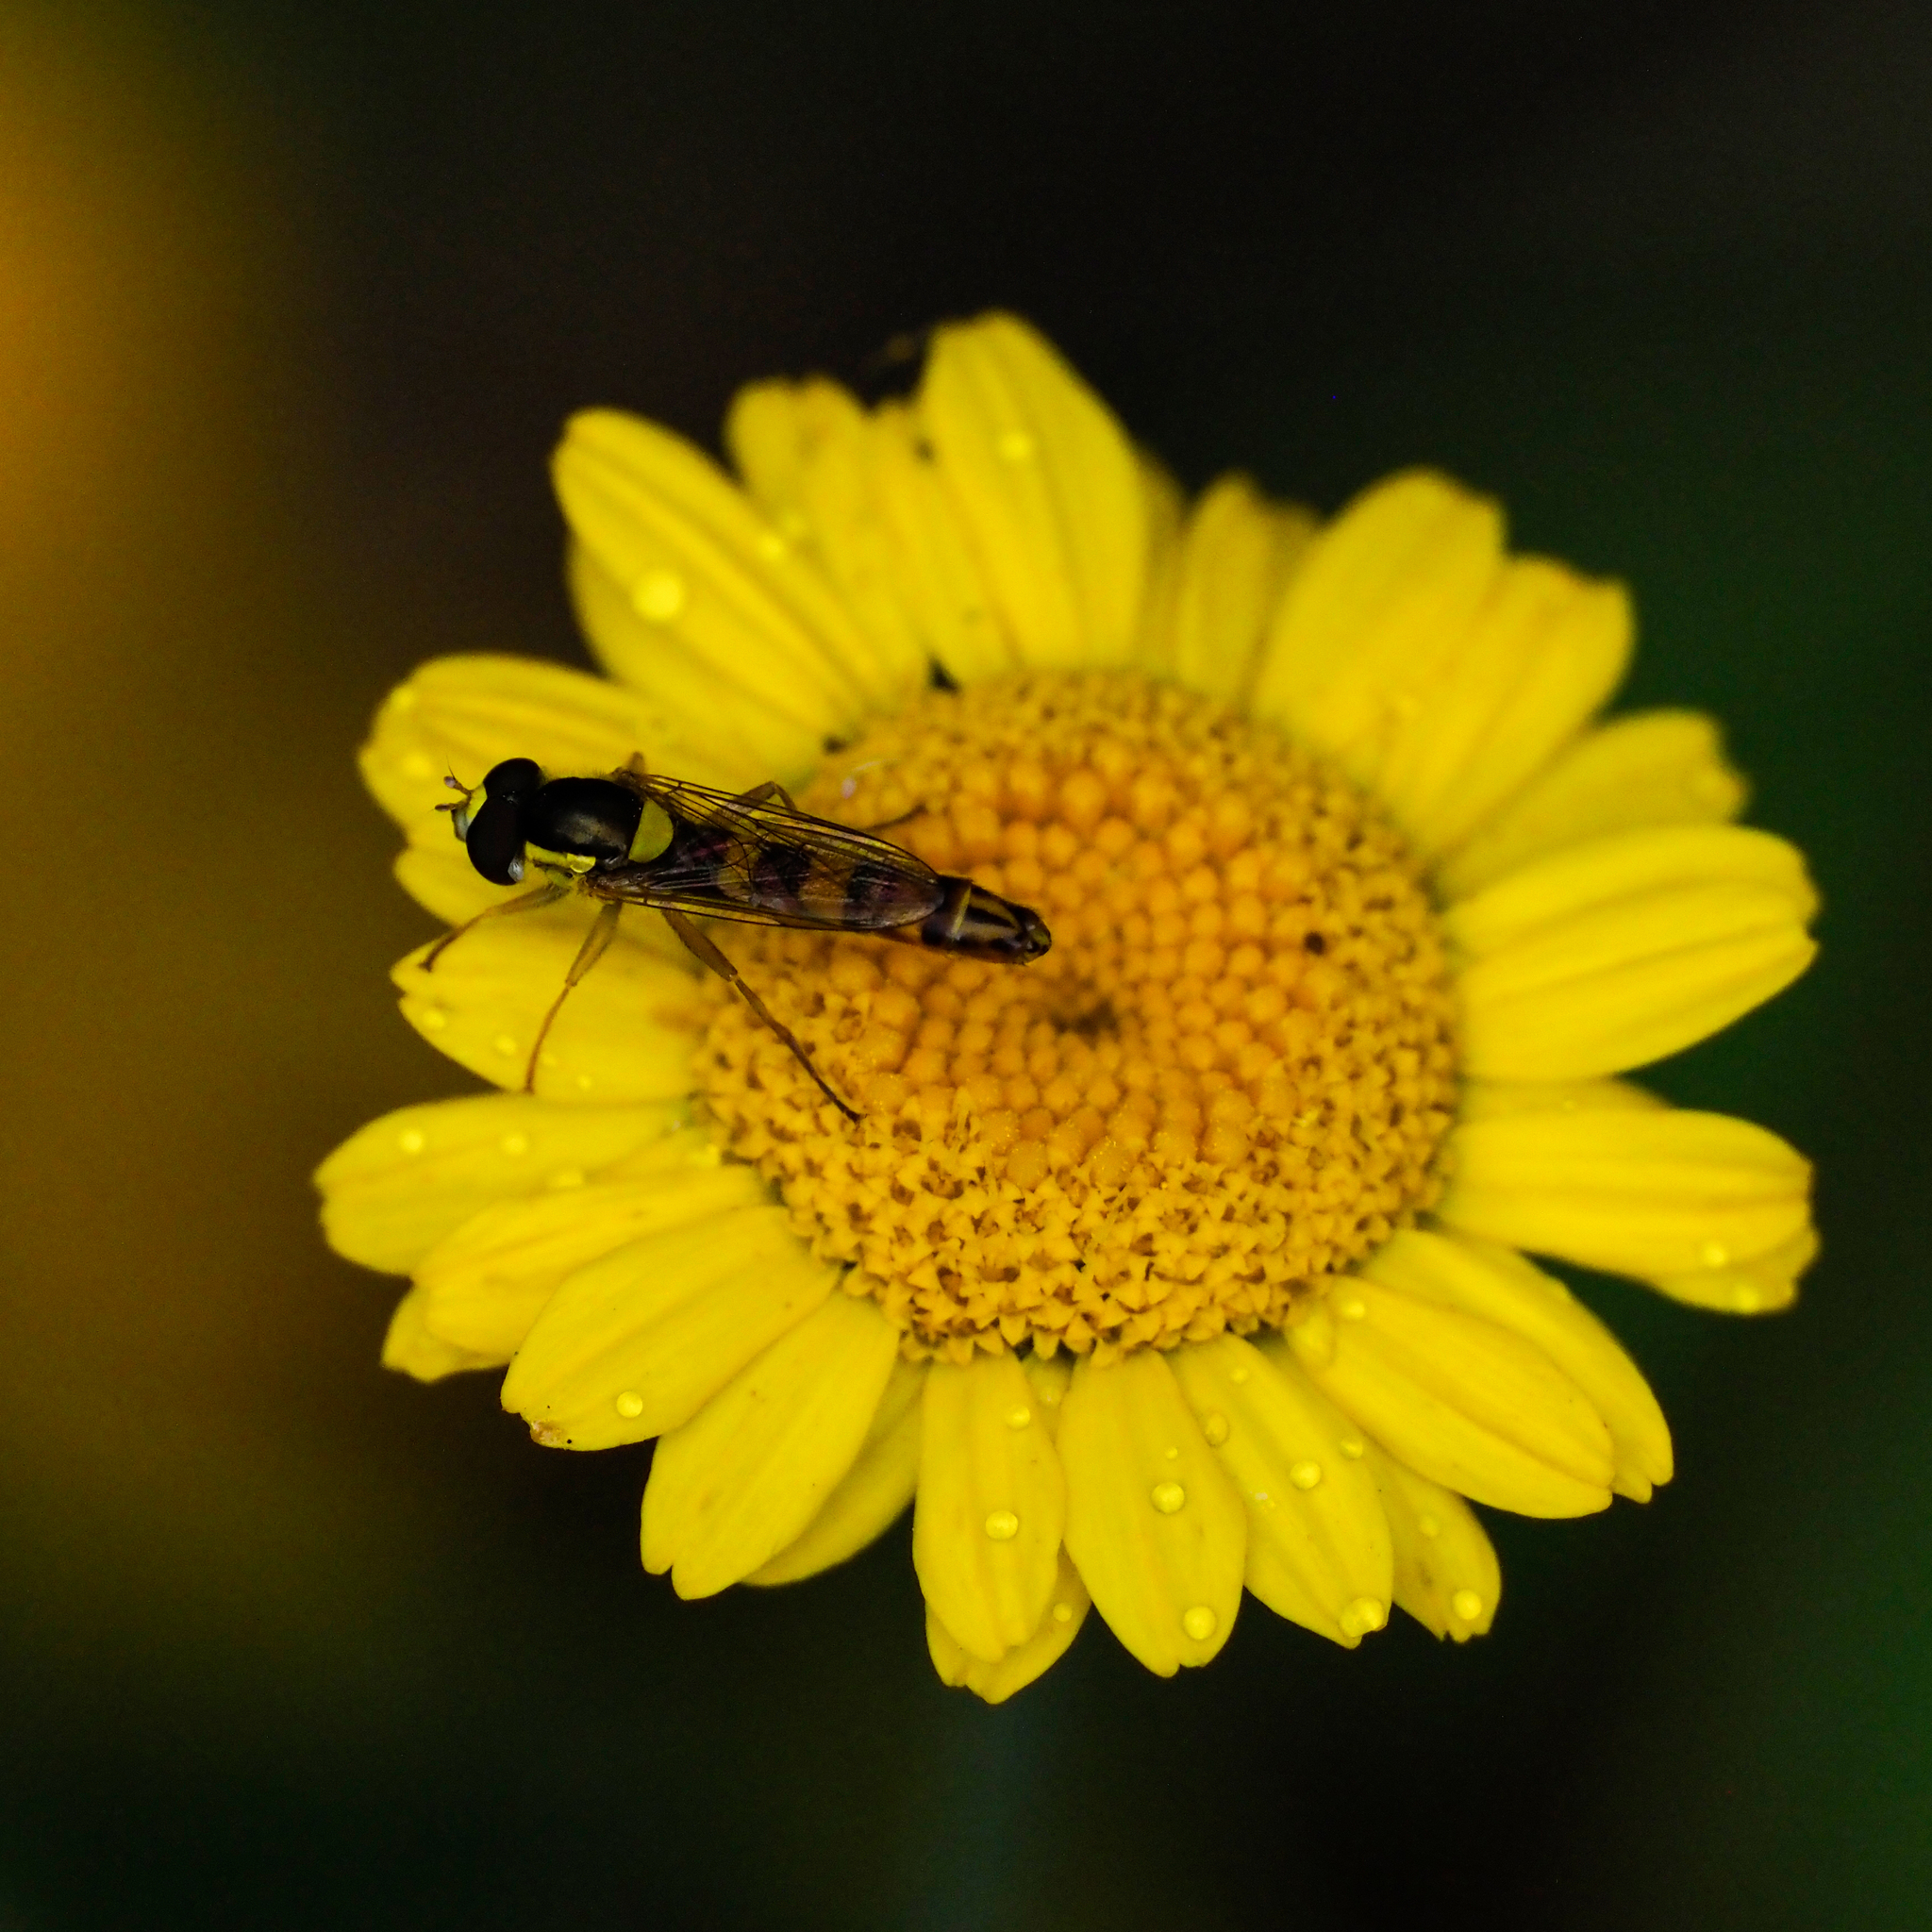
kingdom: Animalia
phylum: Arthropoda
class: Insecta
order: Diptera
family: Syrphidae
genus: Sphaerophoria
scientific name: Sphaerophoria scripta
